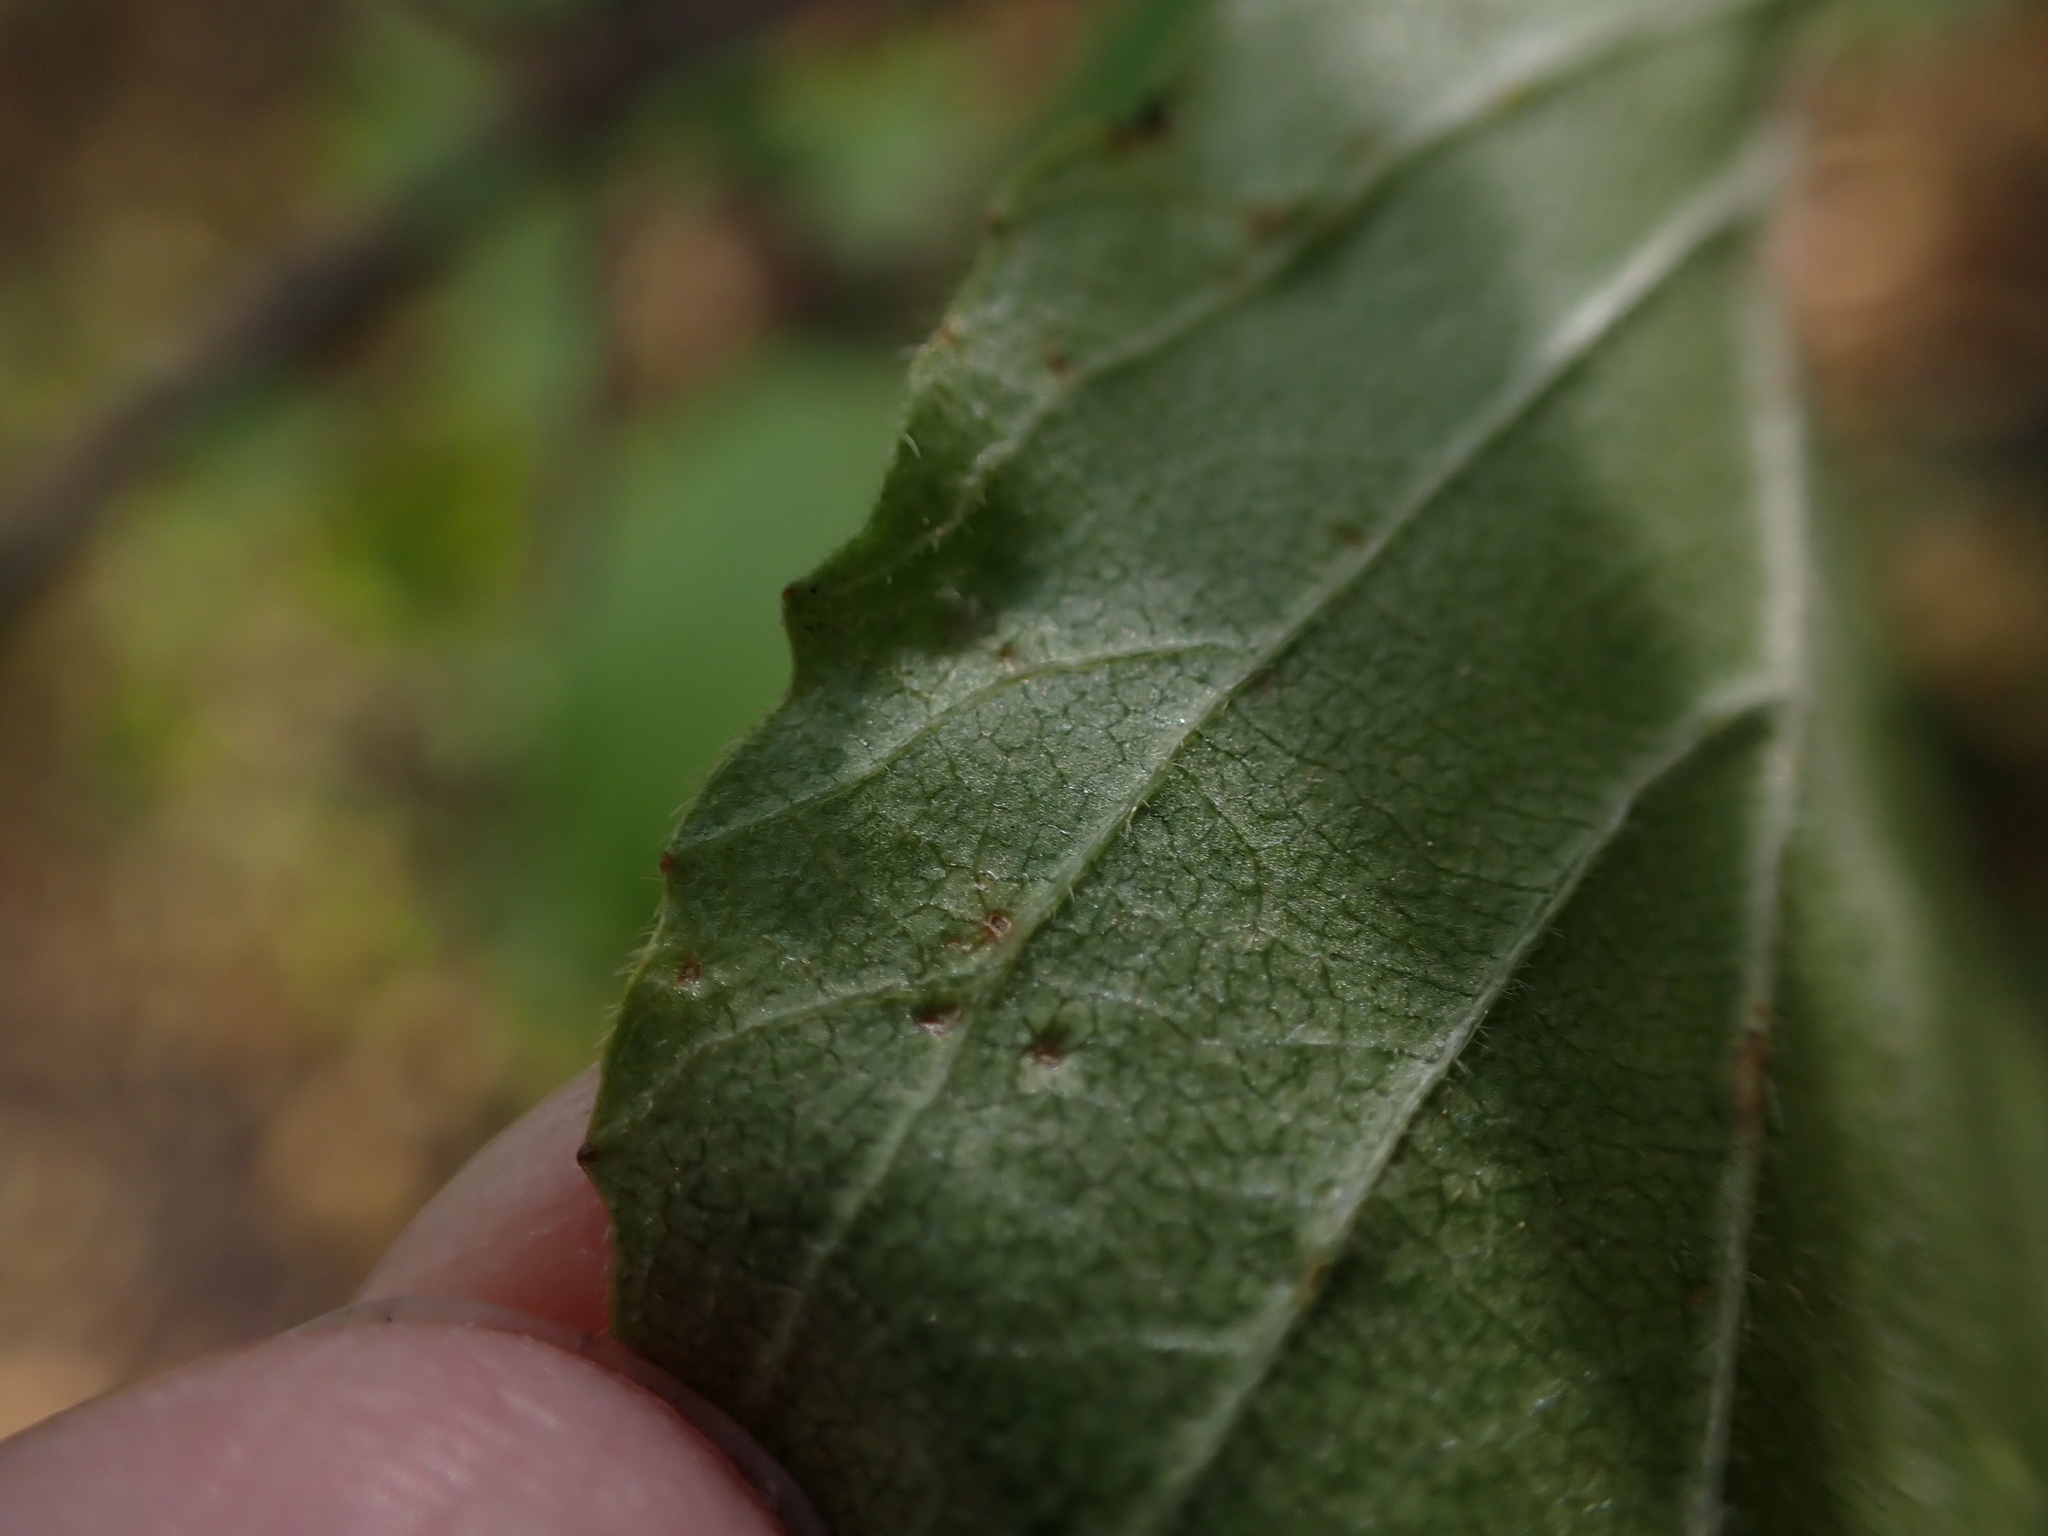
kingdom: Animalia
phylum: Arthropoda
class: Arachnida
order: Trombidiformes
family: Eriophyidae
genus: Eriophyes
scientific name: Eriophyes
